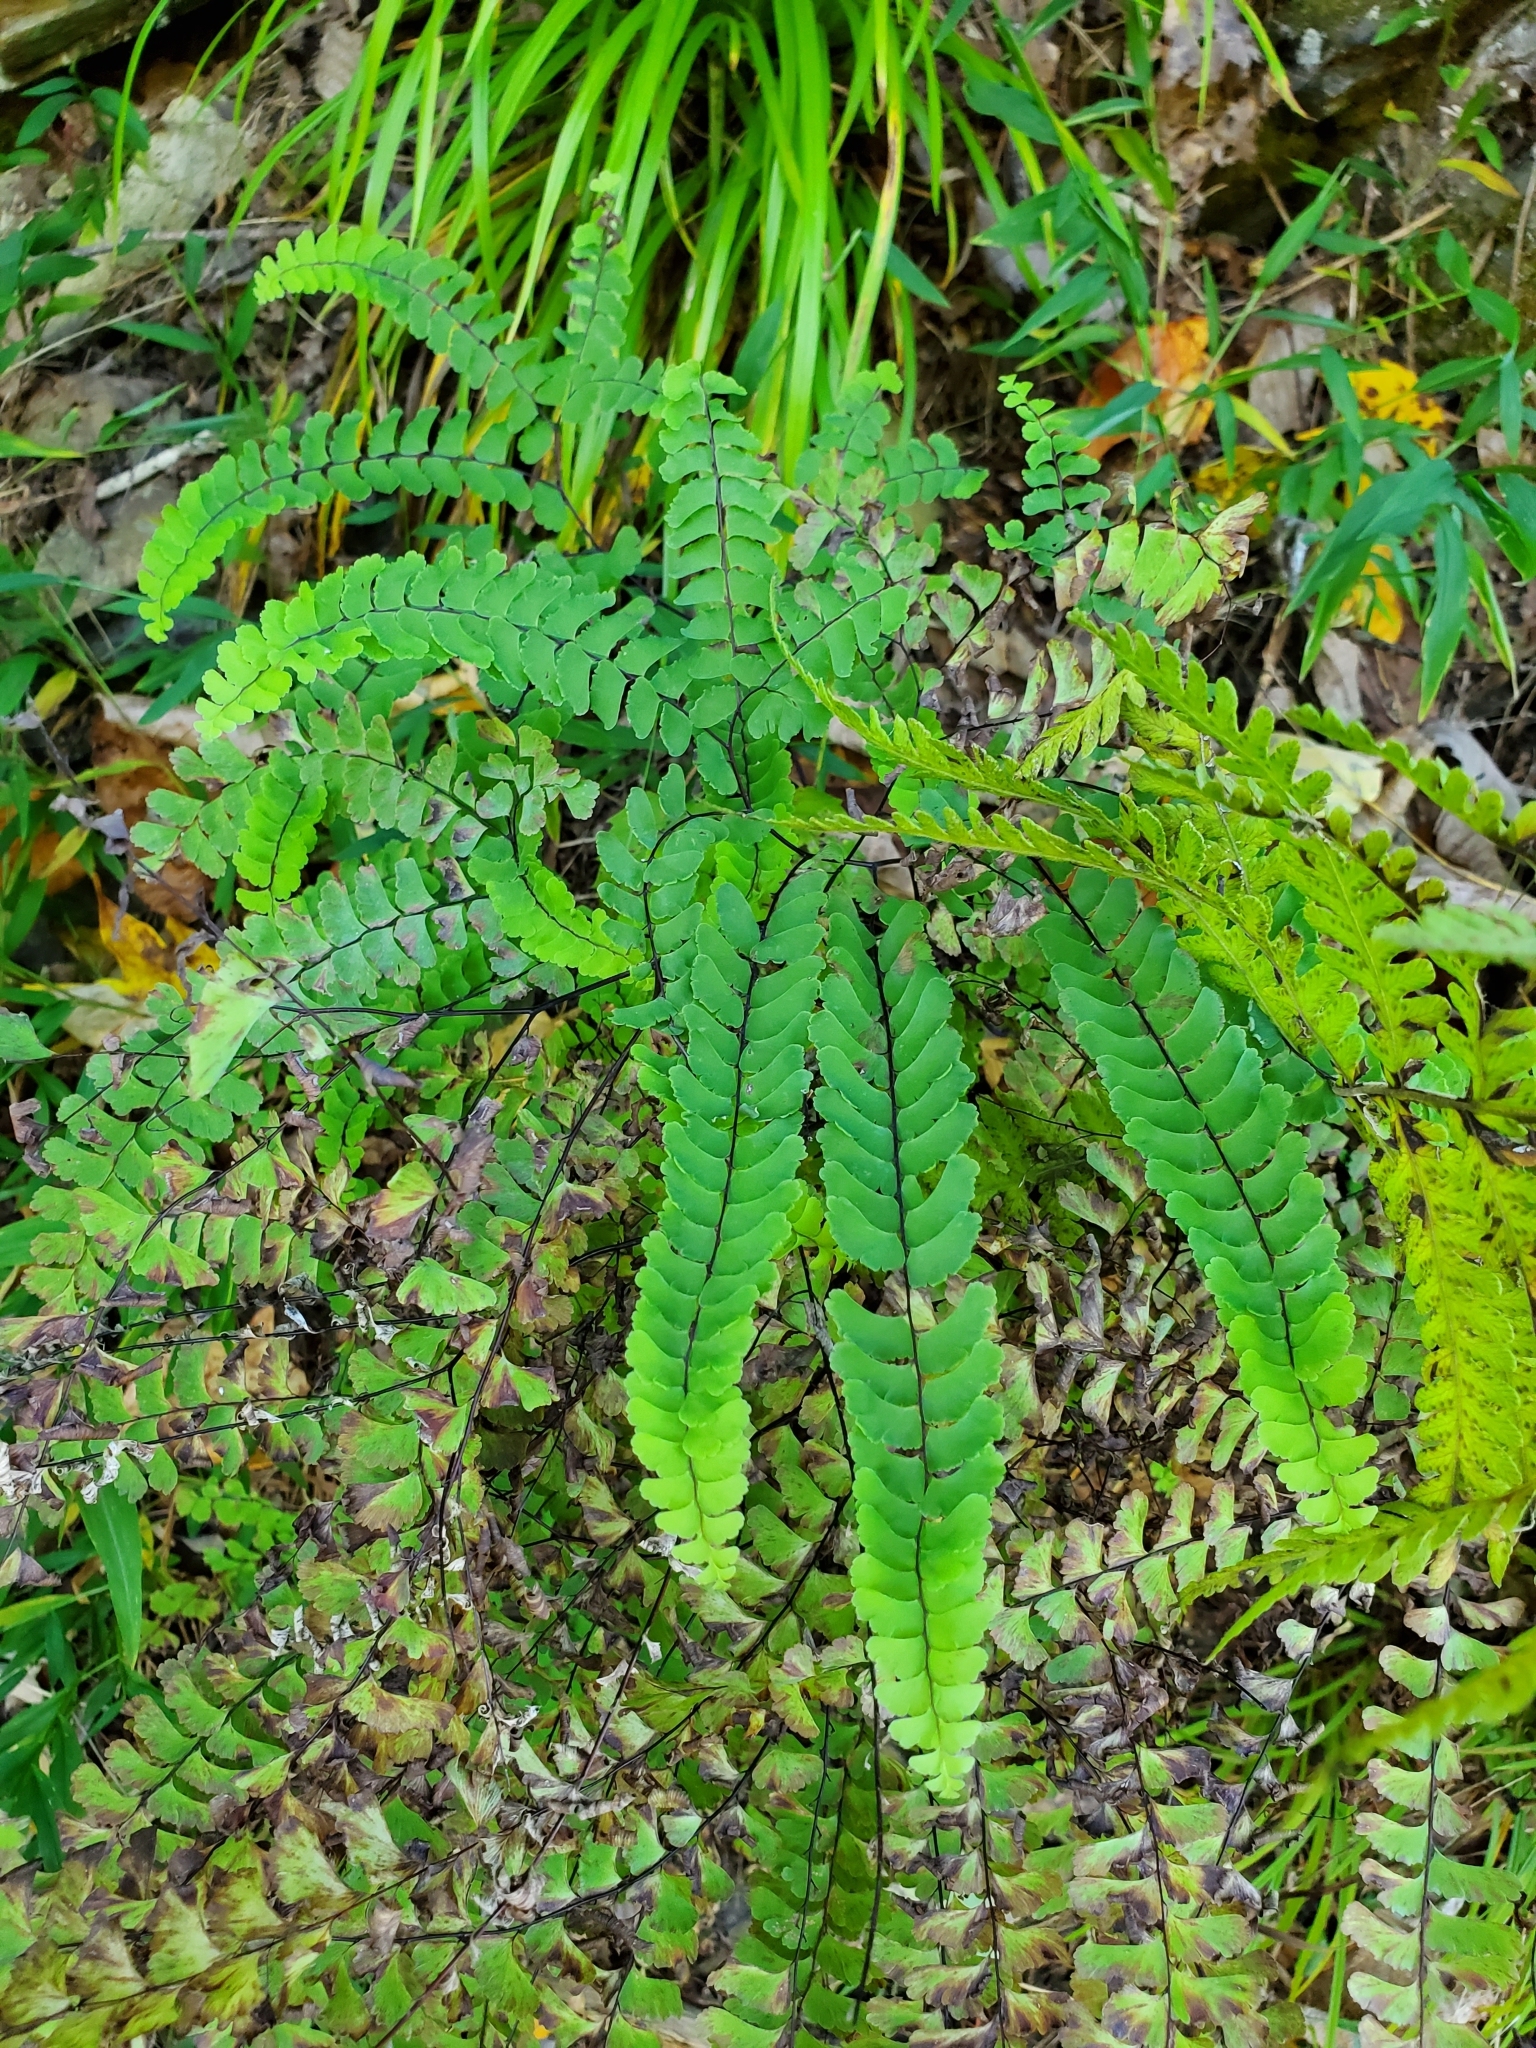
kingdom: Plantae
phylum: Tracheophyta
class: Polypodiopsida
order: Polypodiales
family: Pteridaceae
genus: Adiantum
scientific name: Adiantum pedatum
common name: Five-finger fern
